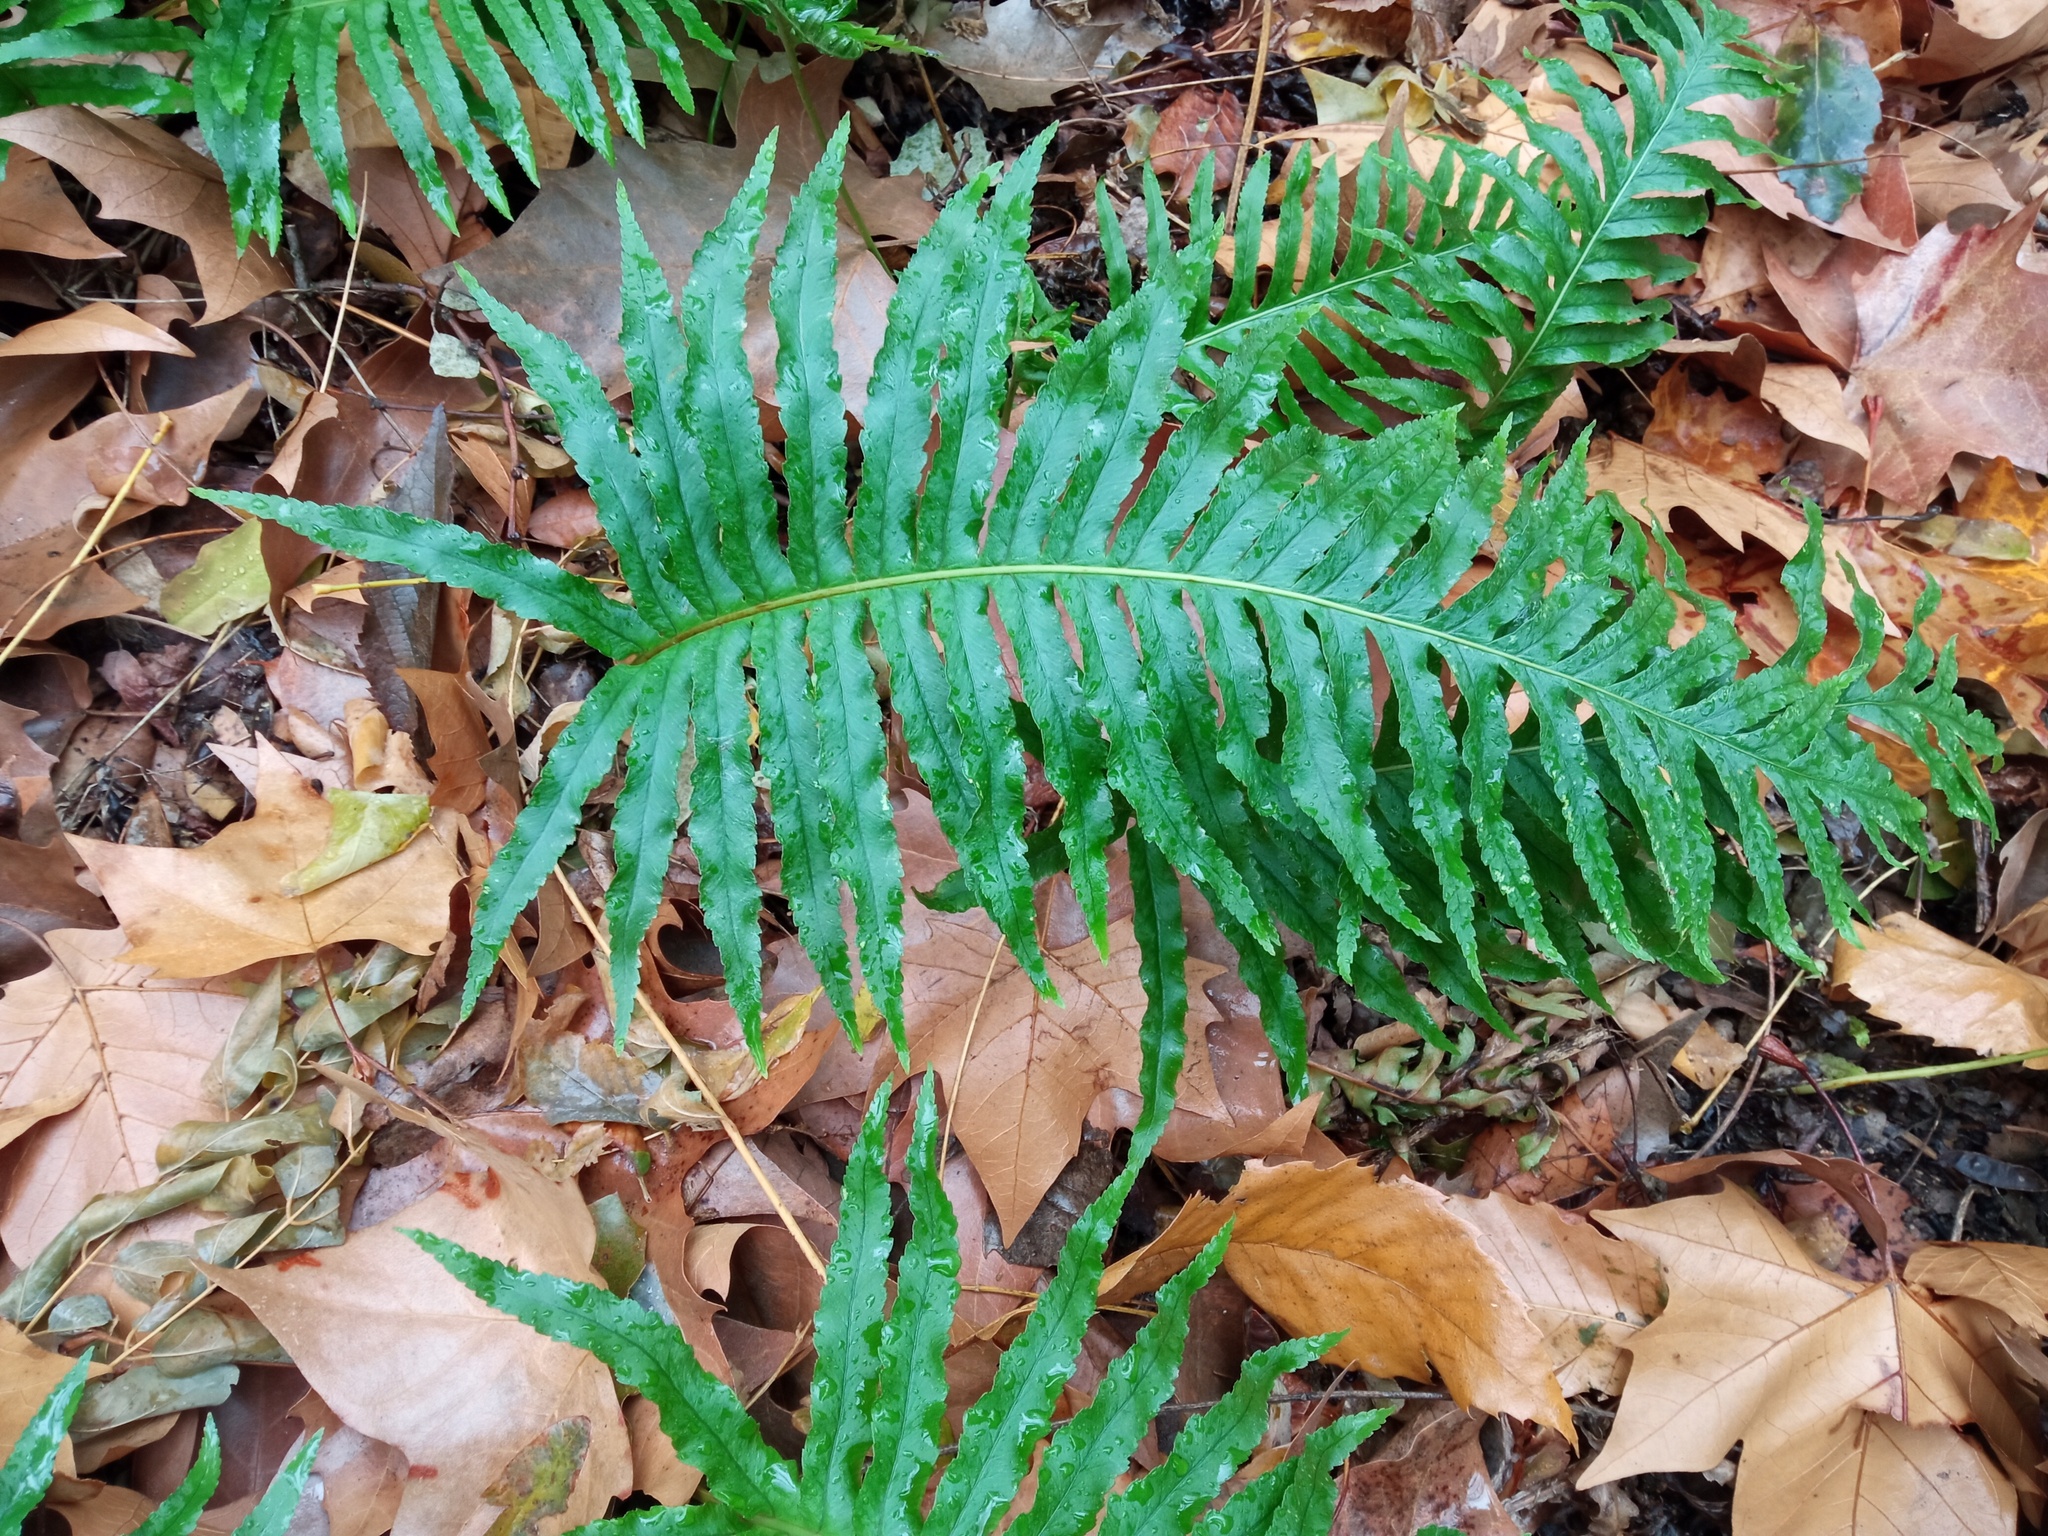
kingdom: Plantae
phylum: Tracheophyta
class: Polypodiopsida
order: Polypodiales
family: Polypodiaceae
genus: Polypodium
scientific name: Polypodium cambricum
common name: Southern polypody
